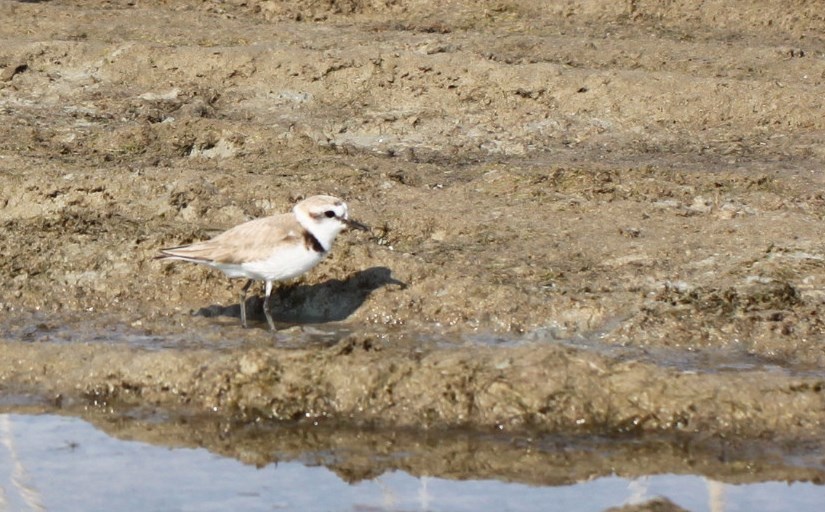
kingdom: Animalia
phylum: Chordata
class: Aves
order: Charadriiformes
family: Charadriidae
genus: Charadrius
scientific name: Charadrius alexandrinus
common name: Kentish plover
